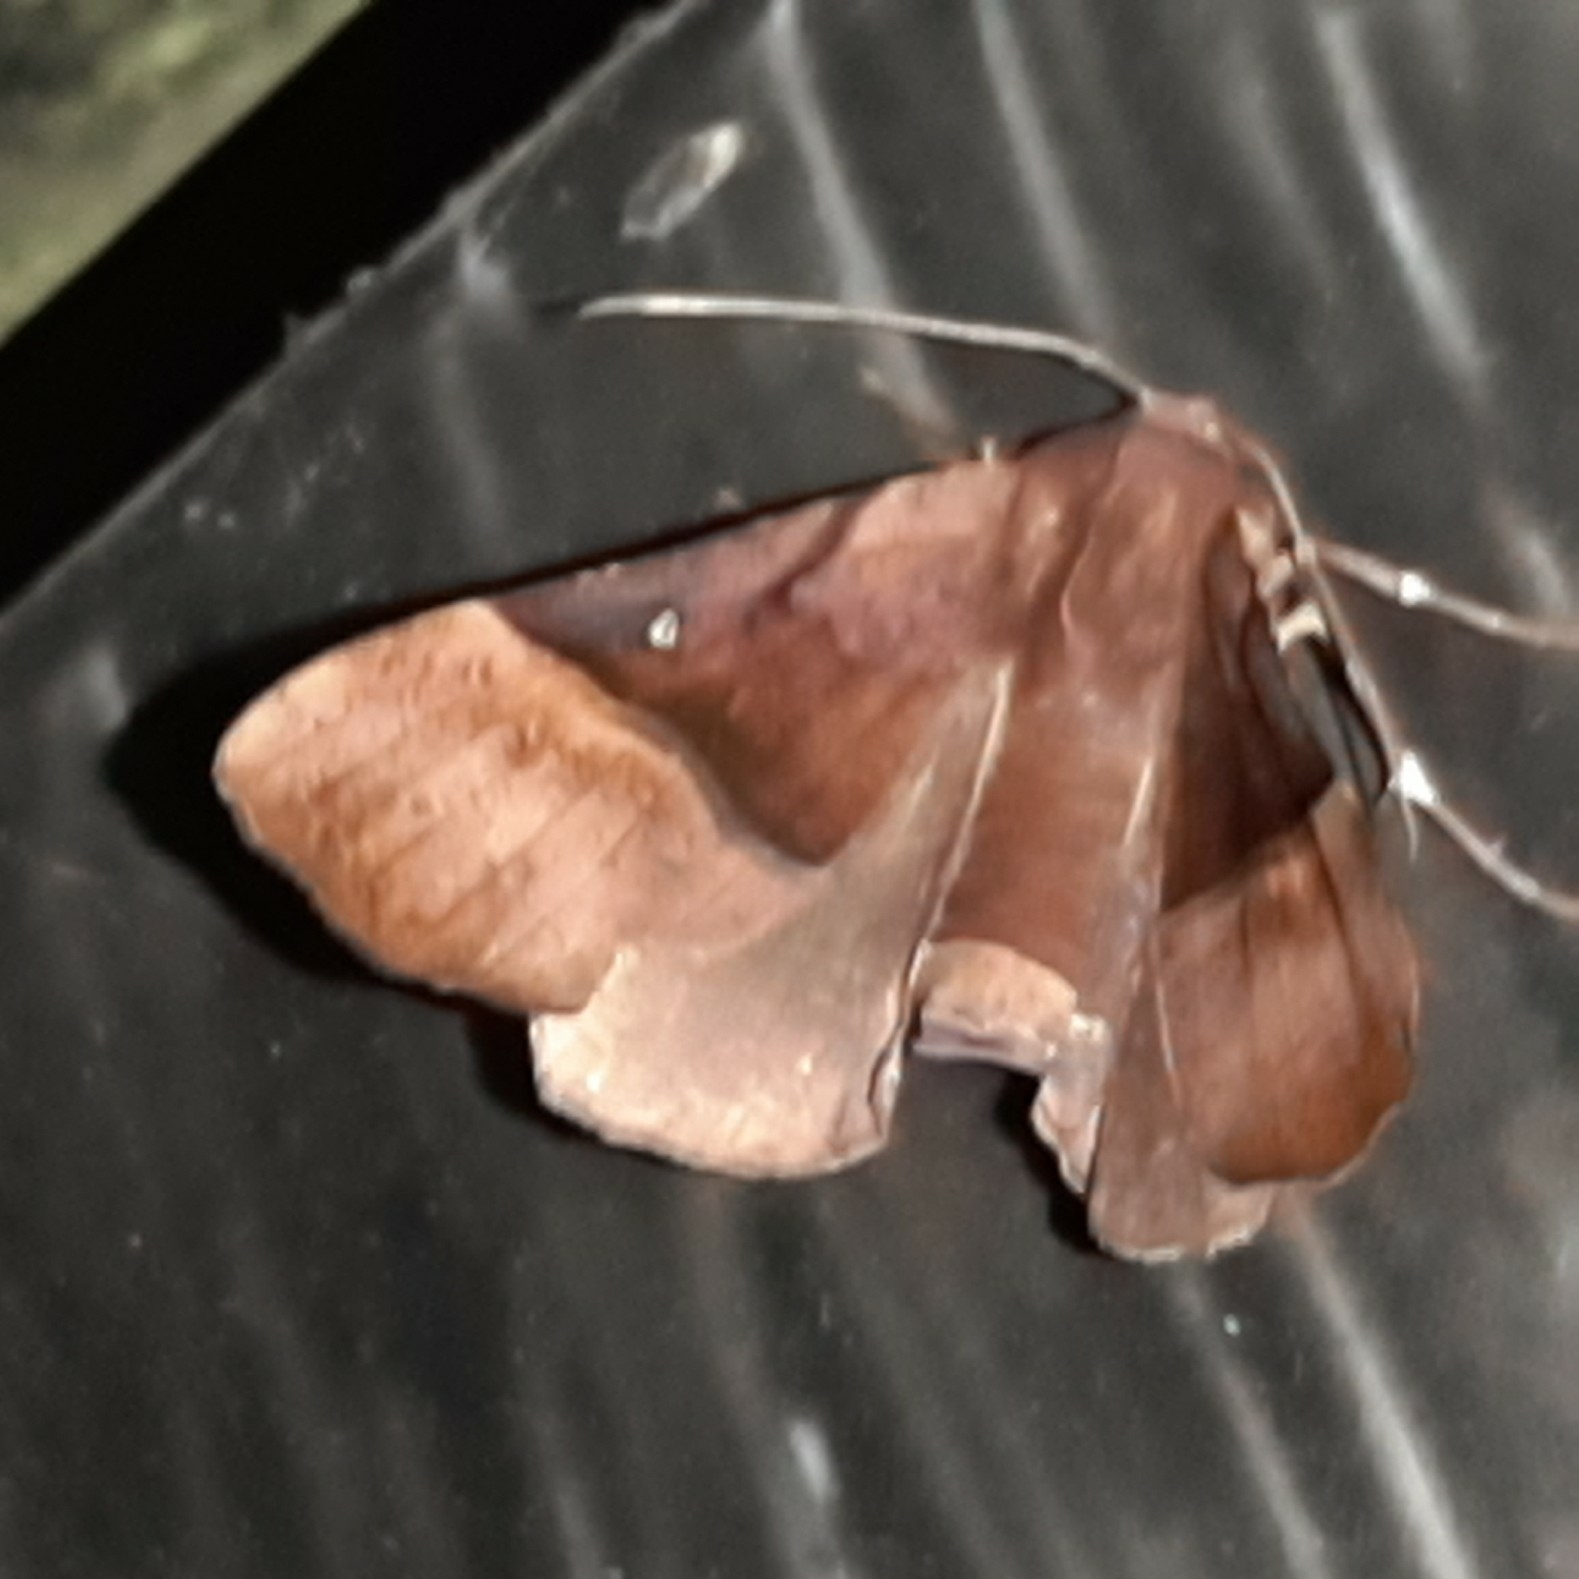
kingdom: Animalia
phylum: Arthropoda
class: Insecta
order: Lepidoptera
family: Geometridae
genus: Pero
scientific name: Pero rotundata
